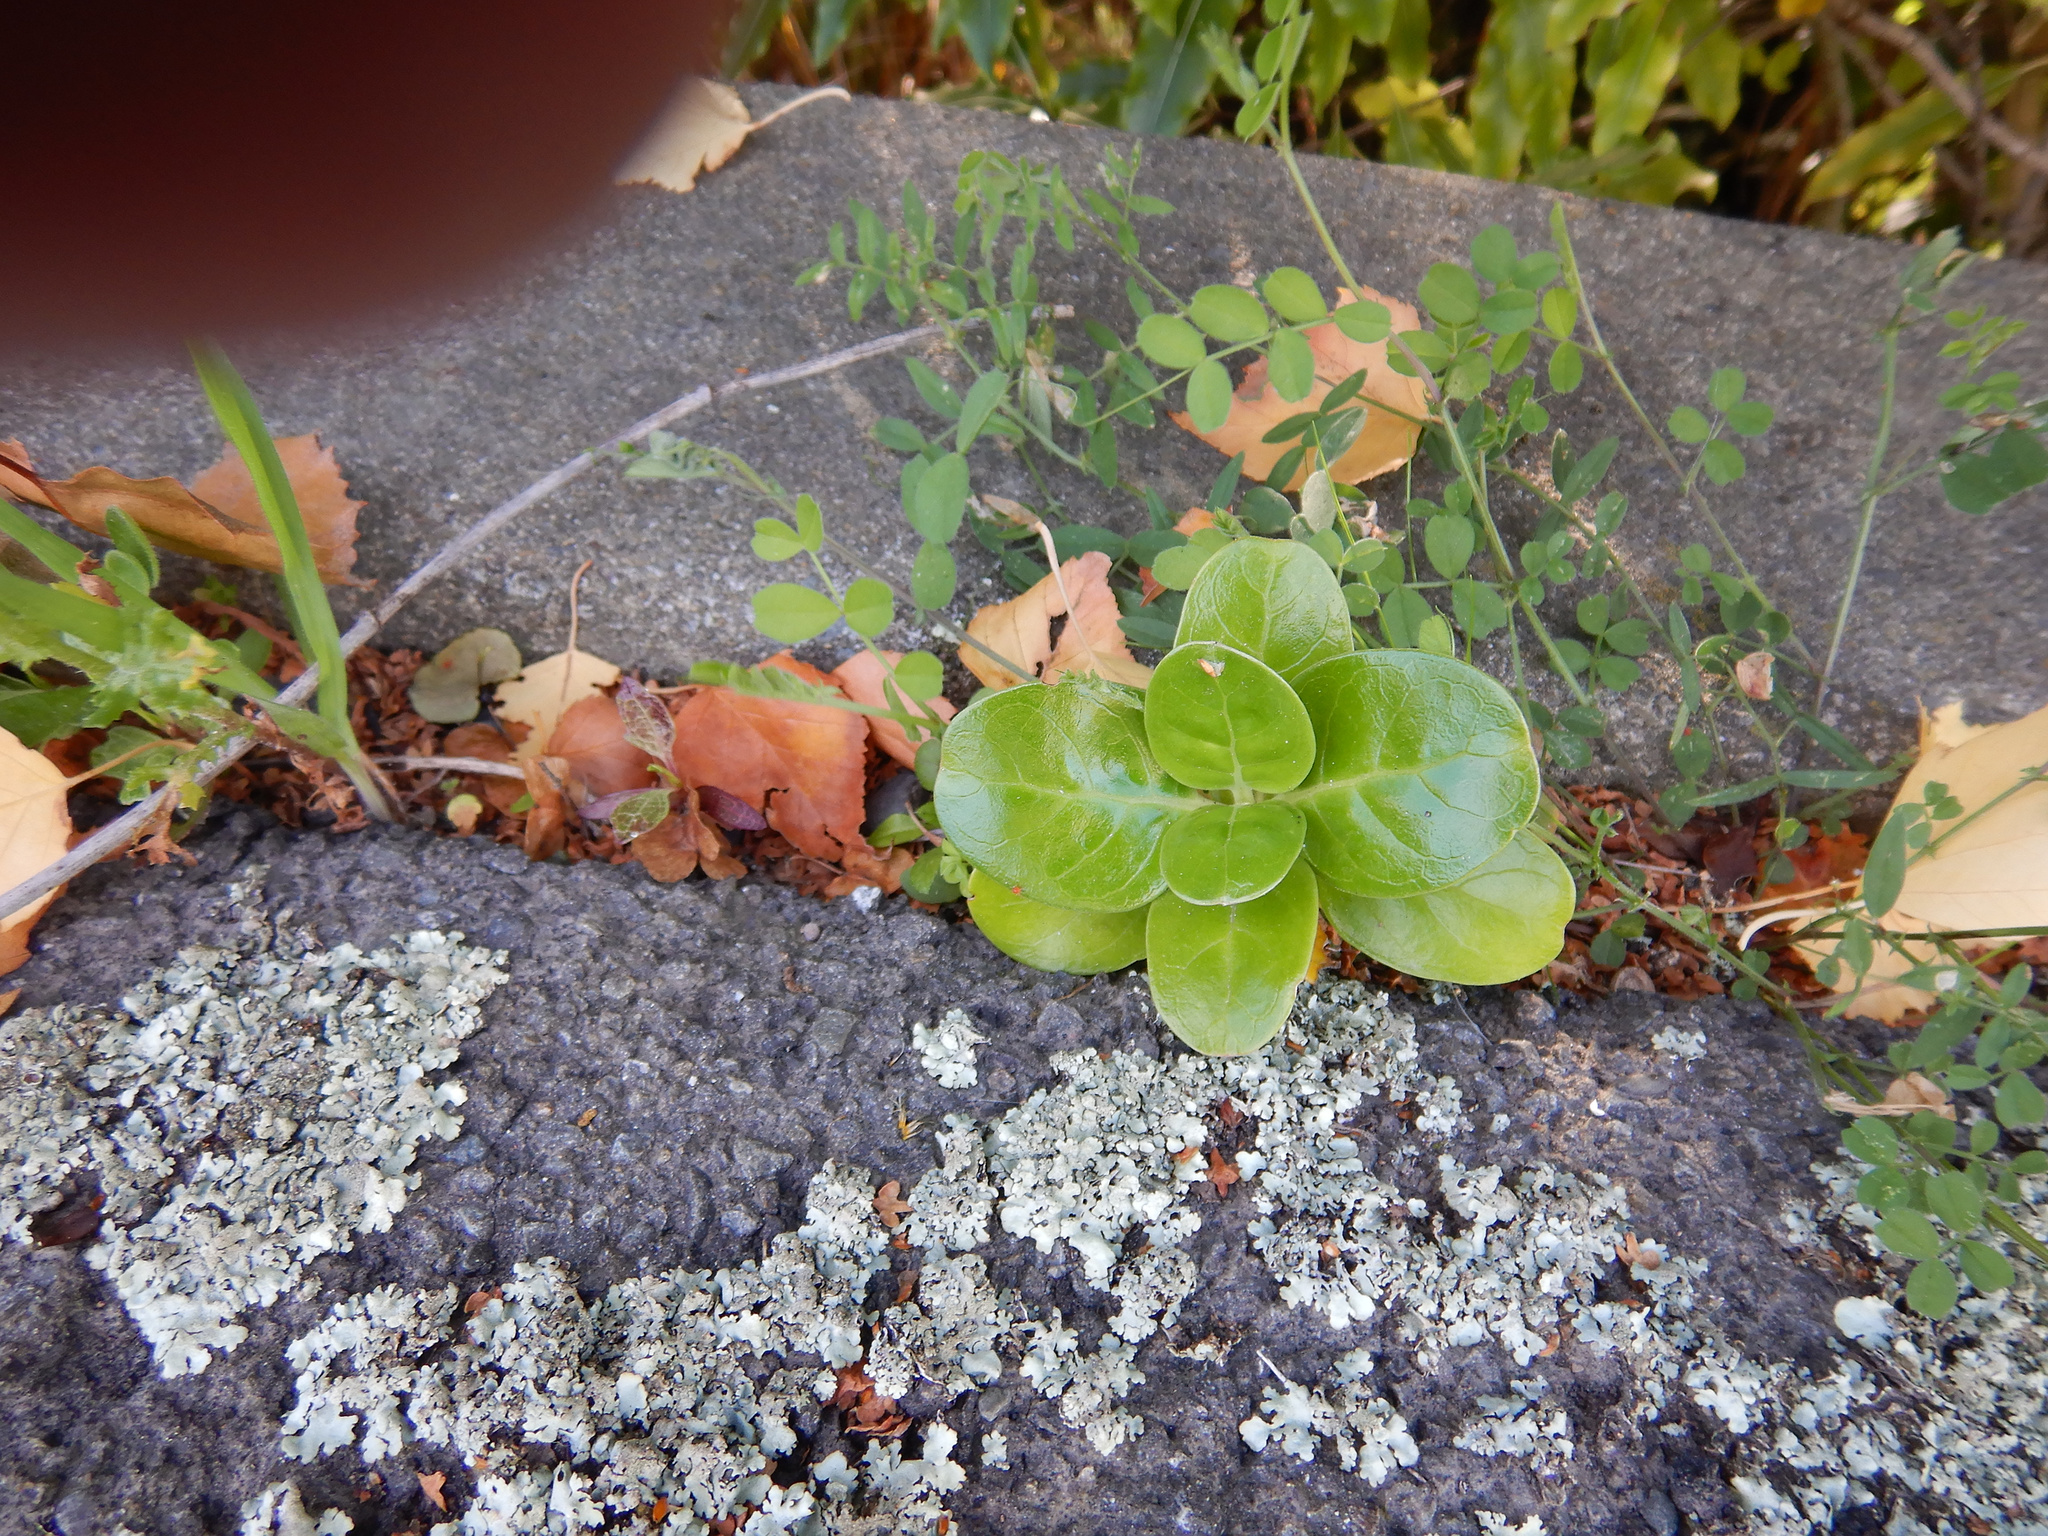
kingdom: Plantae
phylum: Tracheophyta
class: Magnoliopsida
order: Gentianales
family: Rubiaceae
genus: Coprosma
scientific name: Coprosma repens
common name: Tree bedstraw
